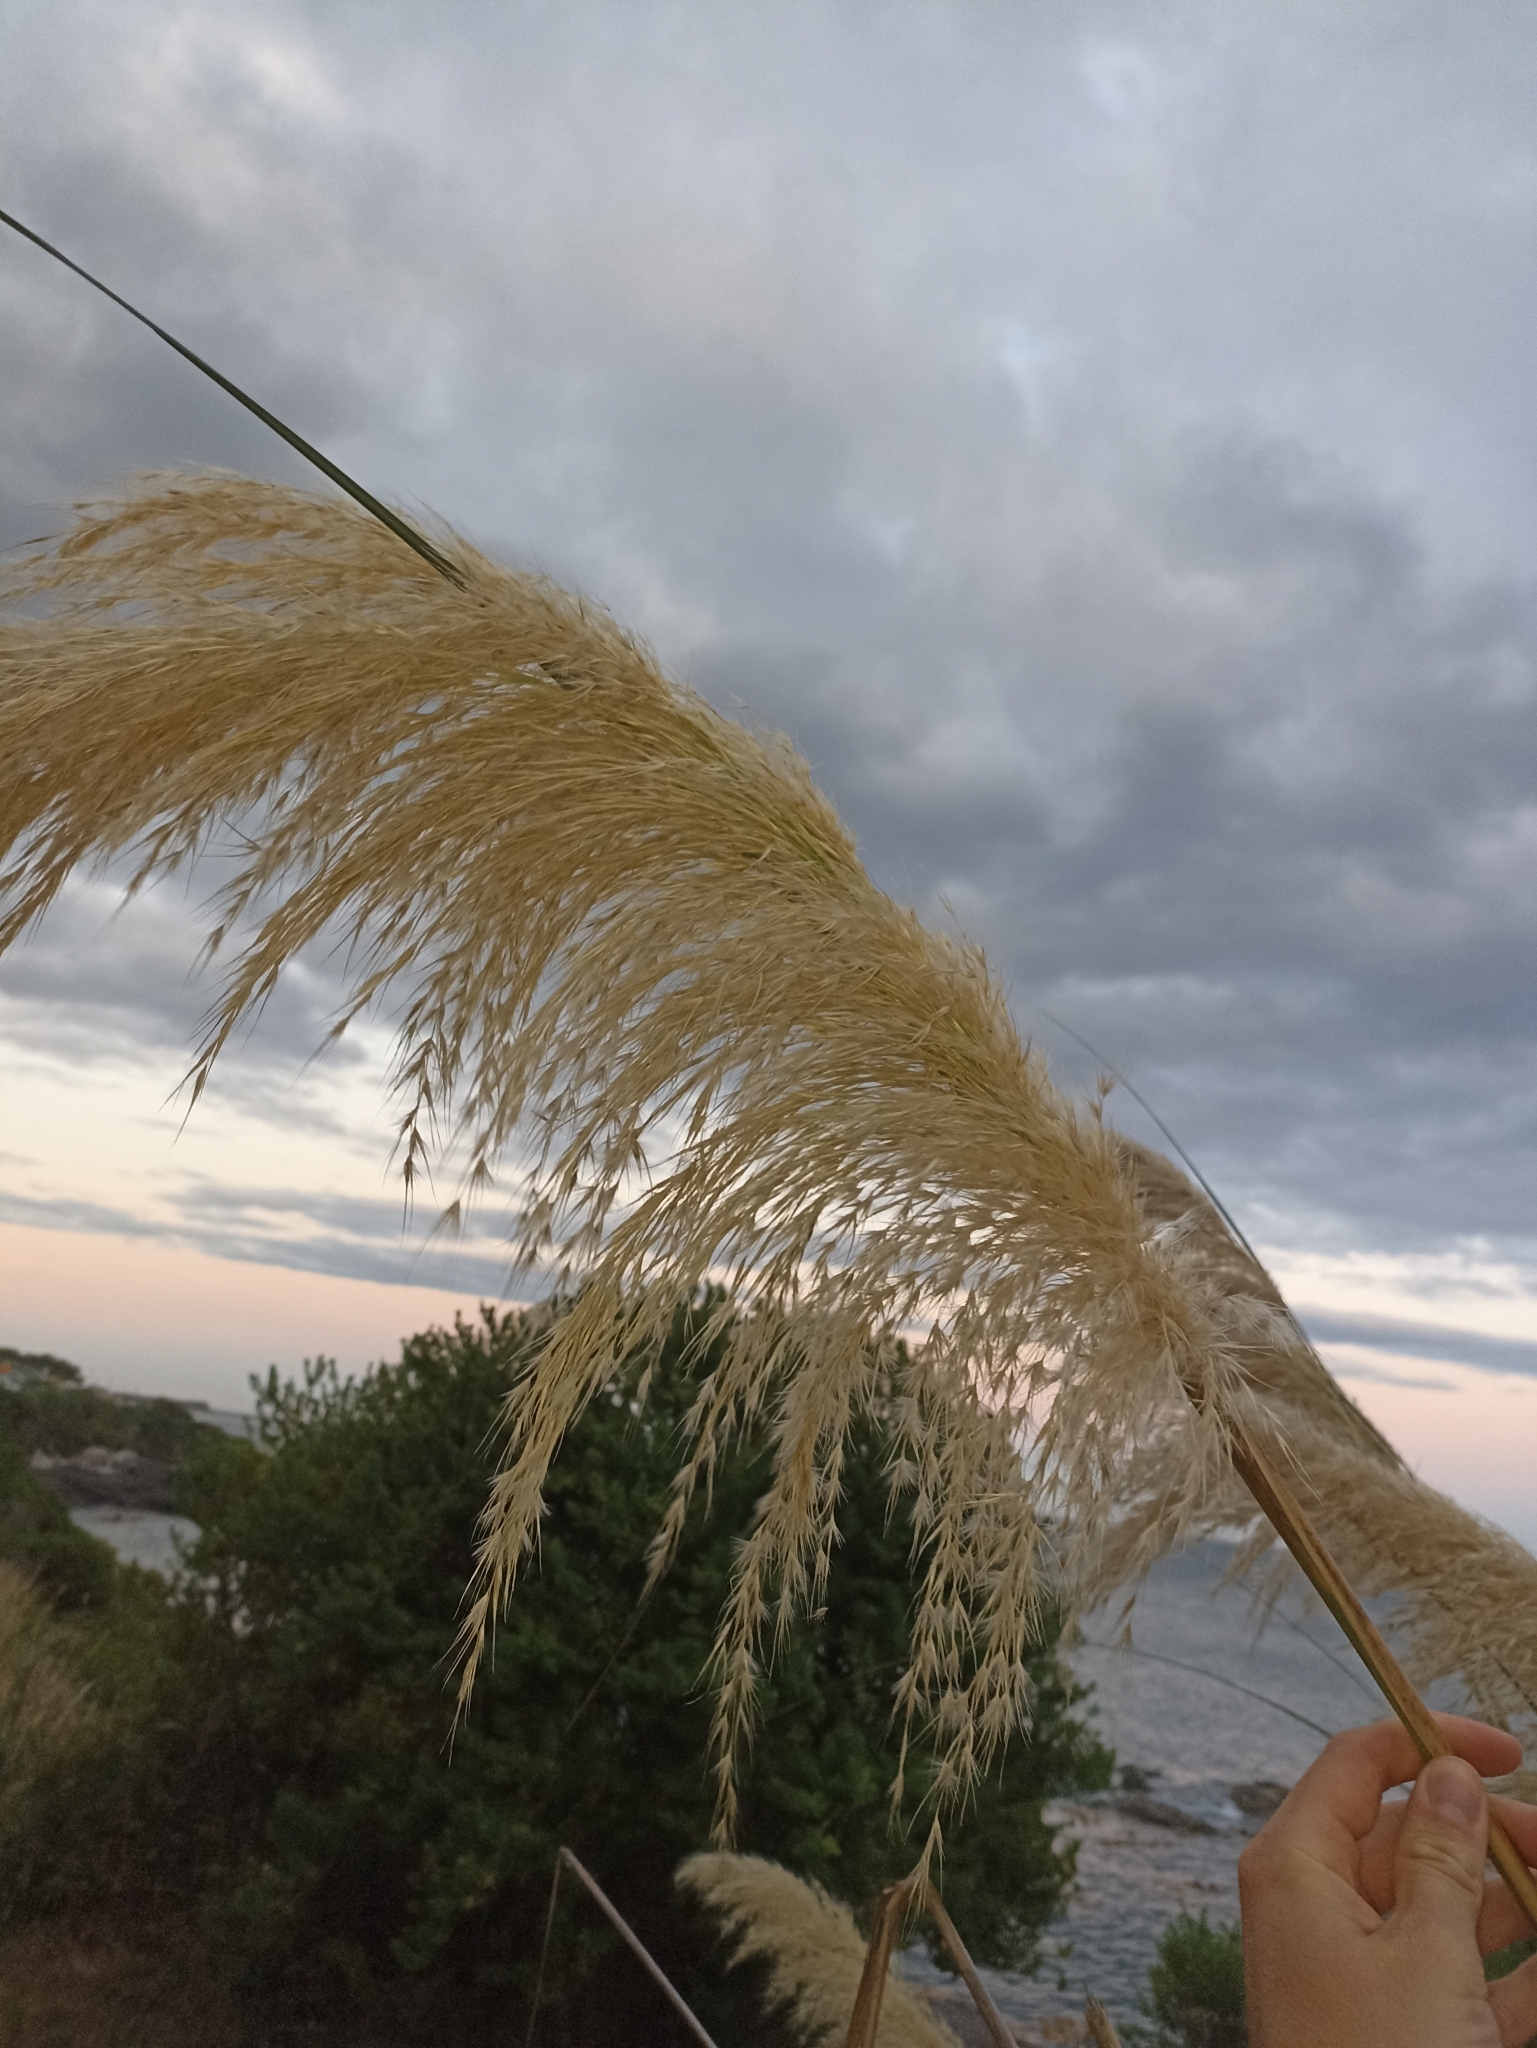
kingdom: Plantae
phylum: Tracheophyta
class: Liliopsida
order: Poales
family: Poaceae
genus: Austroderia
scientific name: Austroderia richardii
